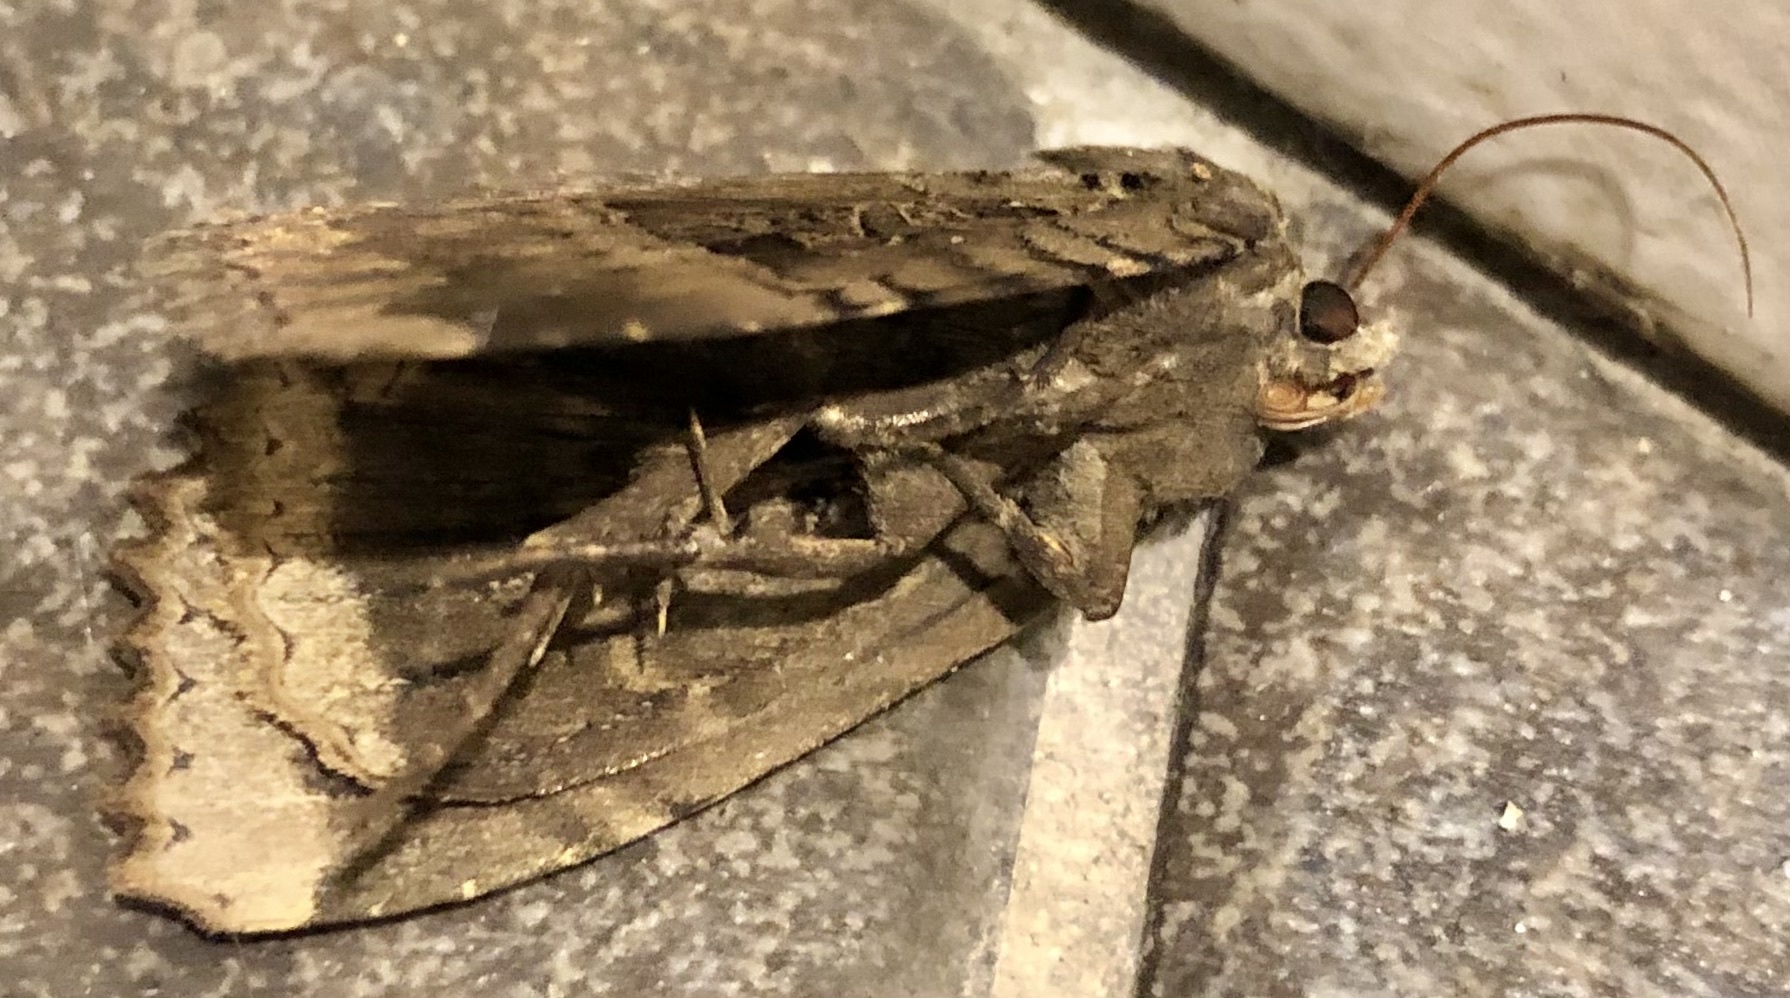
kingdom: Animalia
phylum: Arthropoda
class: Insecta
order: Lepidoptera
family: Noctuidae
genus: Mormo
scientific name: Mormo maura
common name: Old lady
